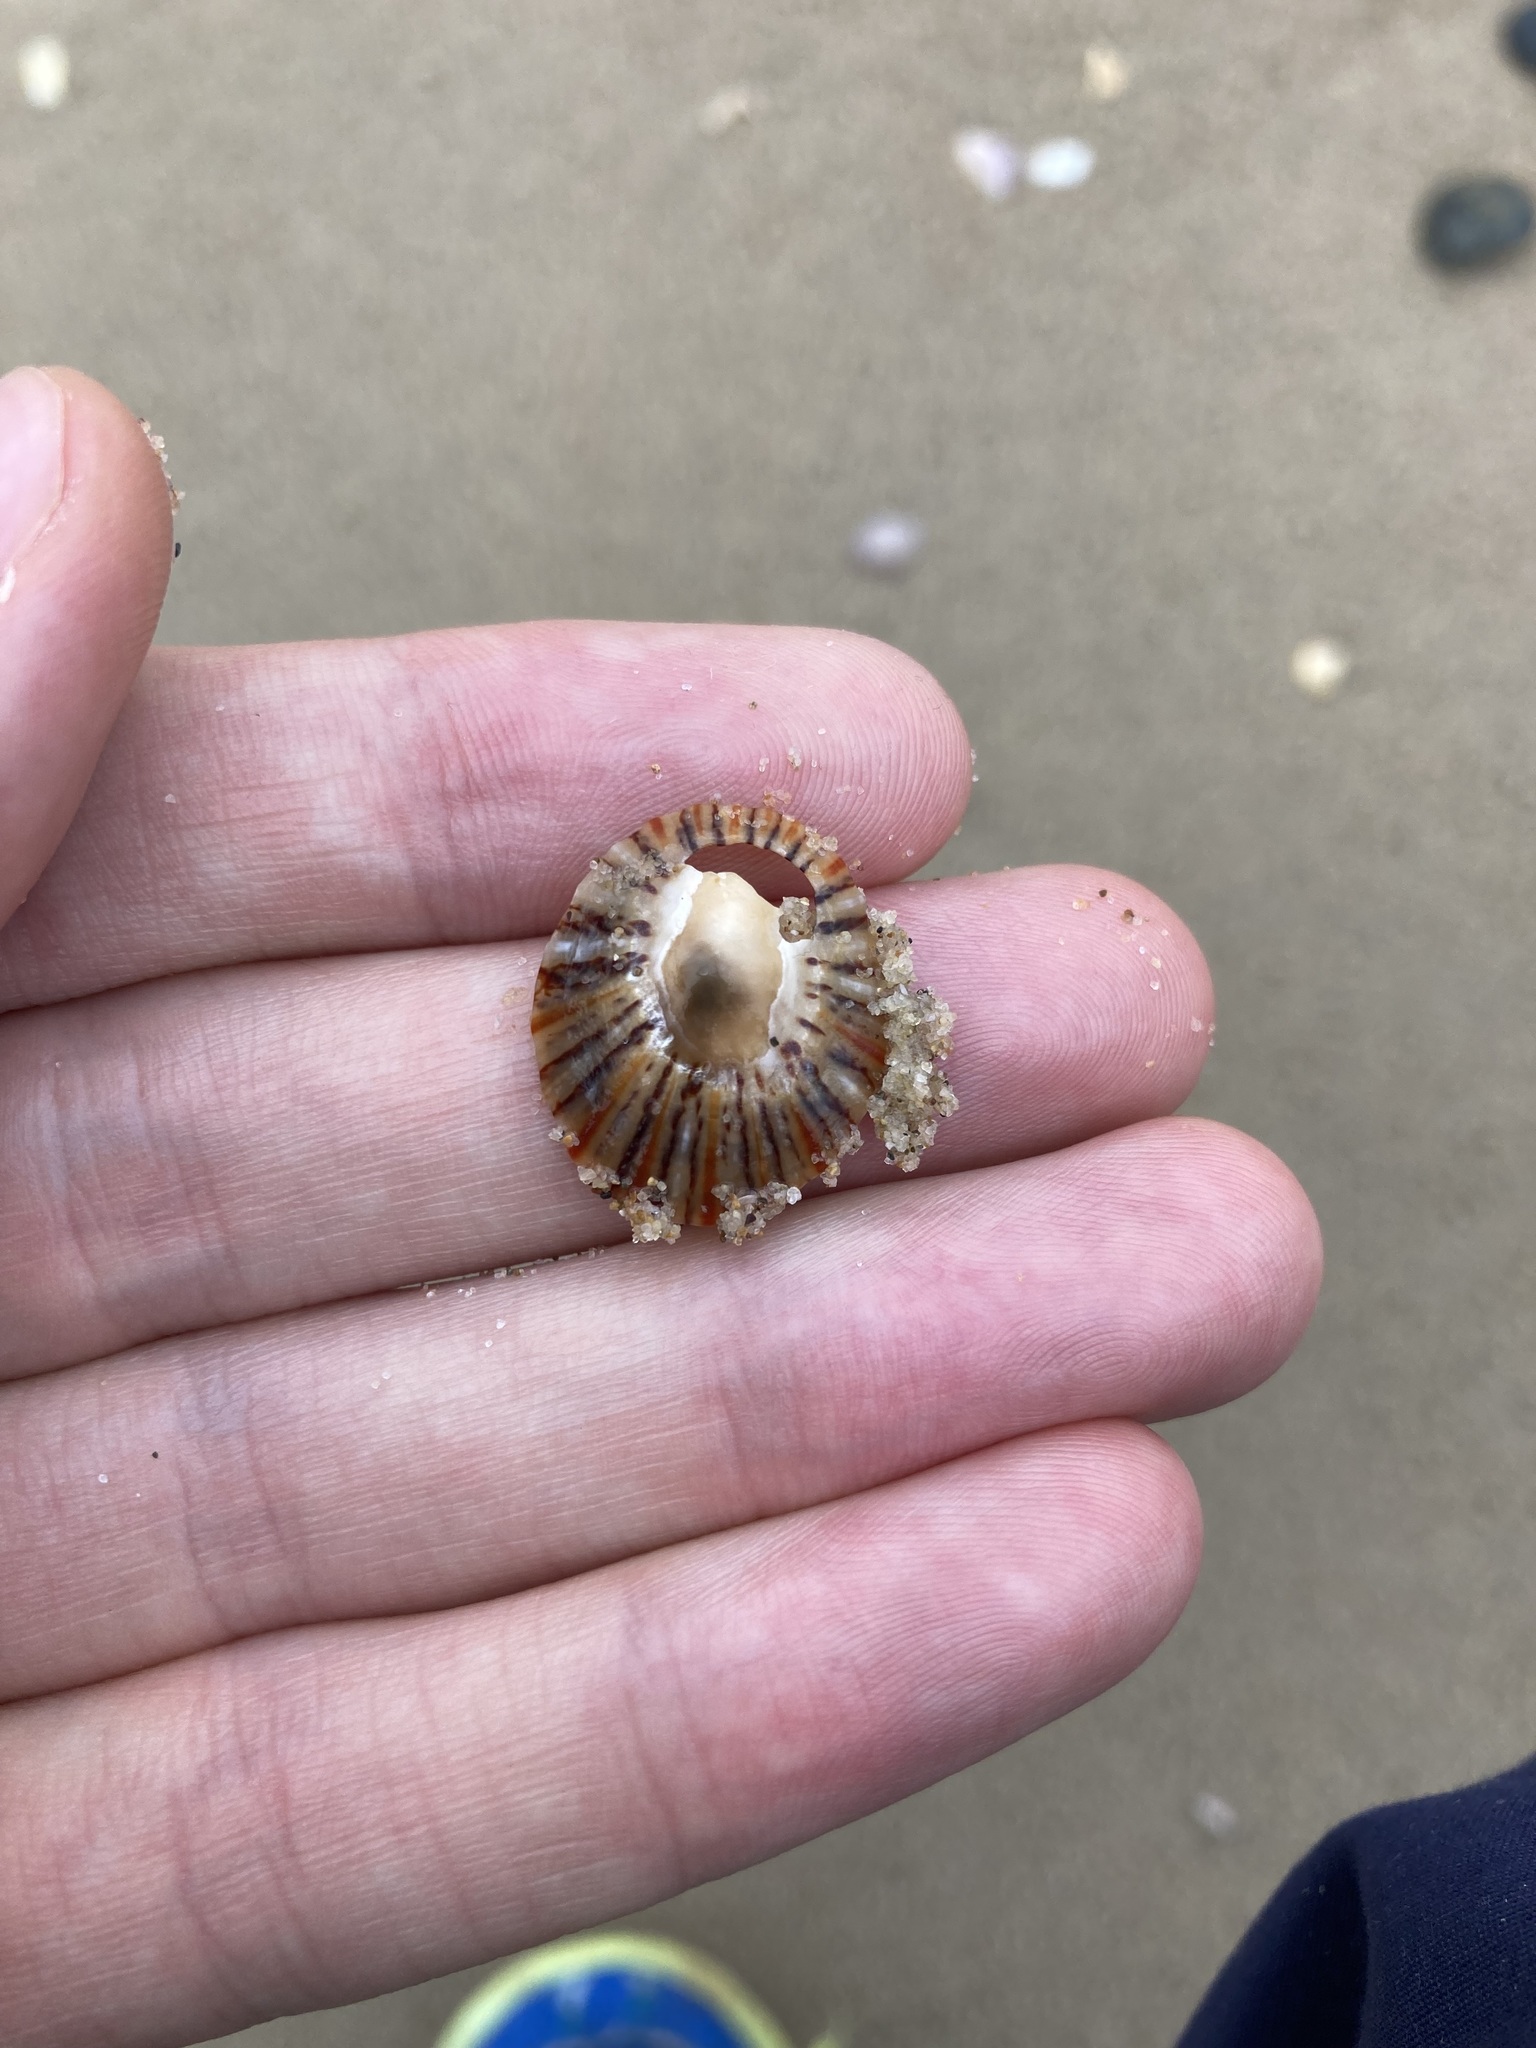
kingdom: Animalia
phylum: Mollusca
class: Gastropoda
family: Nacellidae
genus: Cellana
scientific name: Cellana tramoserica
